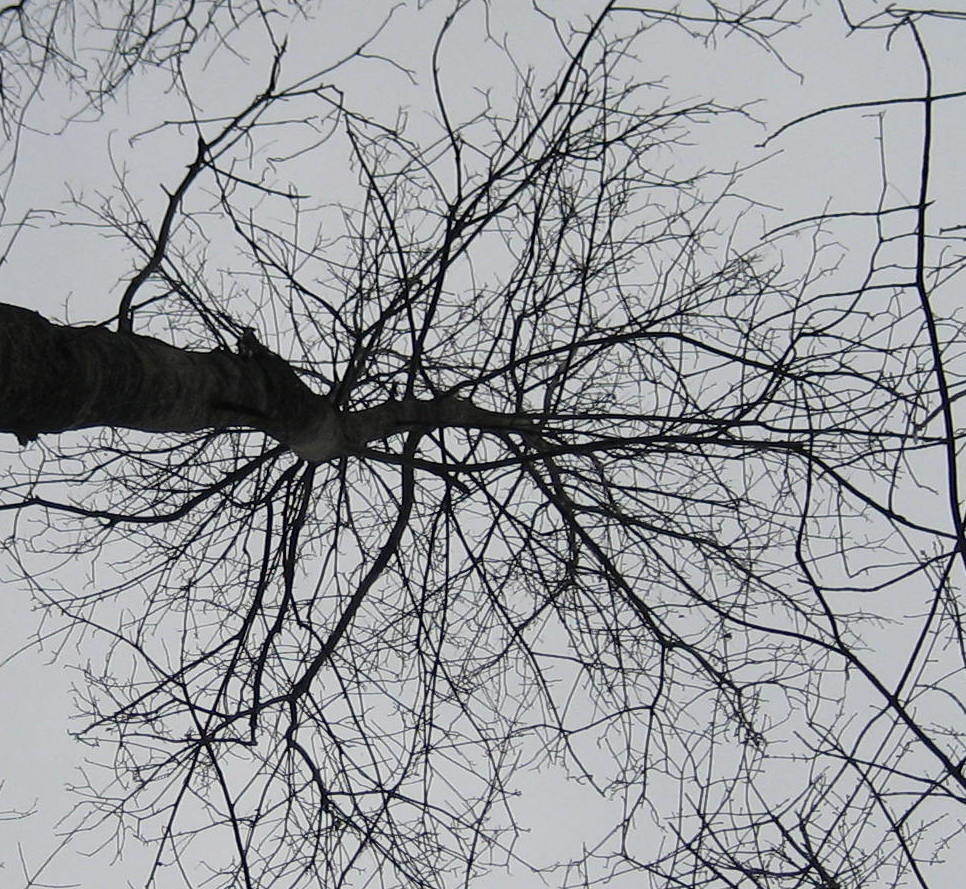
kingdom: Plantae
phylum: Tracheophyta
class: Magnoliopsida
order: Fagales
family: Juglandaceae
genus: Carya
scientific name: Carya cordiformis
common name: Bitternut hickory
